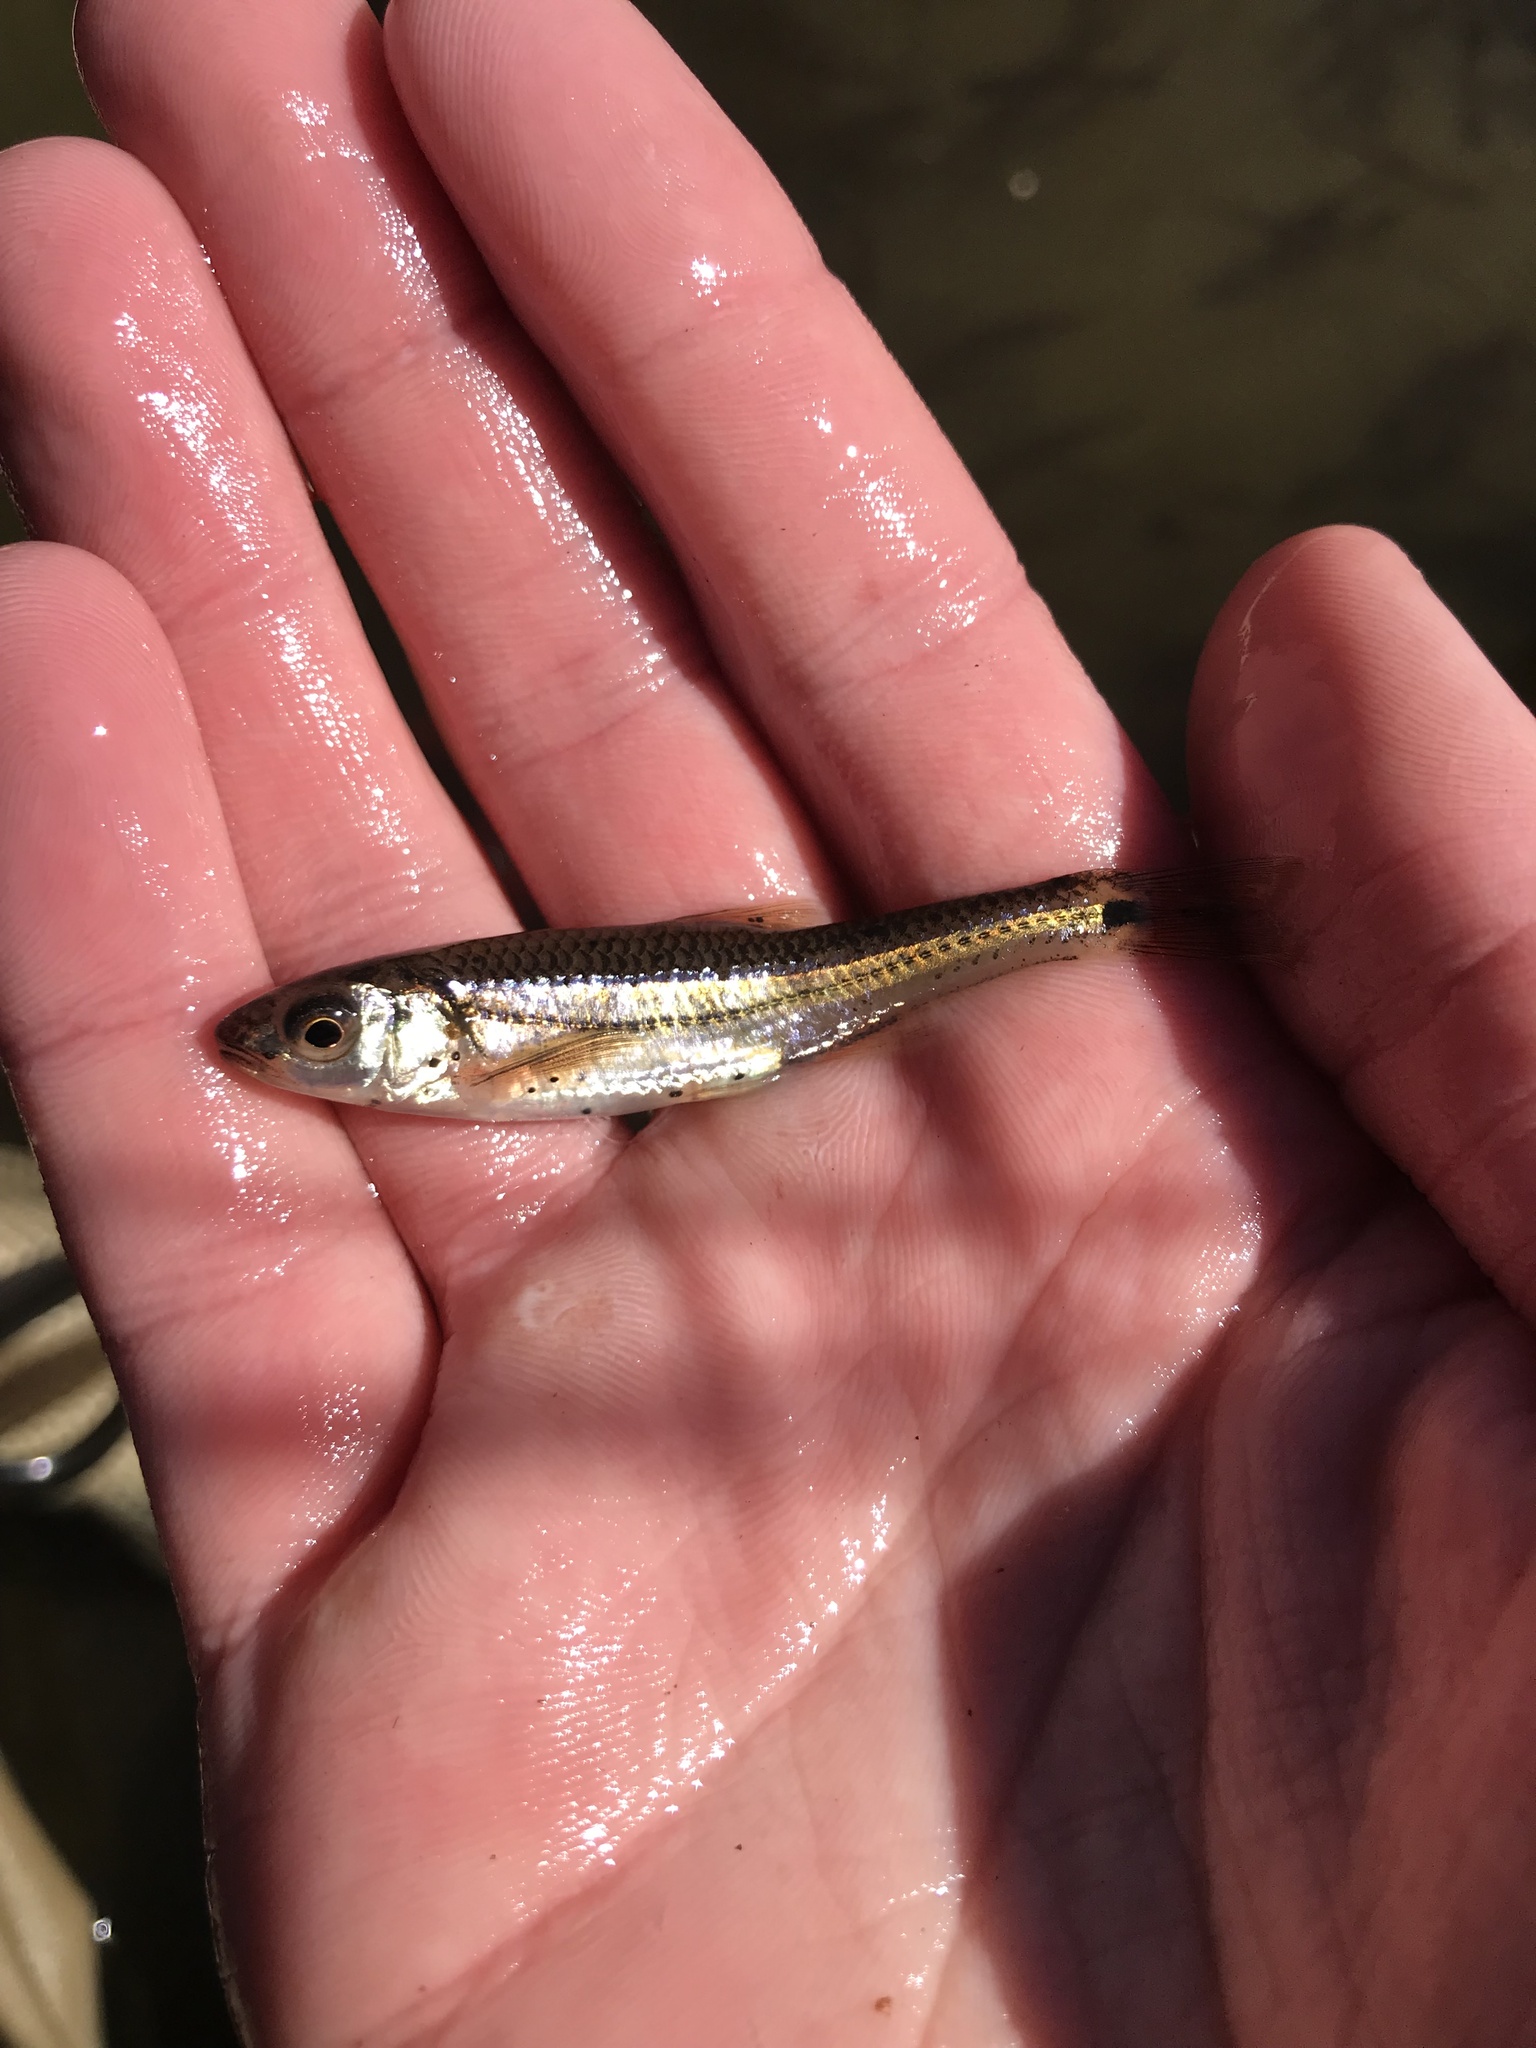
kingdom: Animalia
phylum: Chordata
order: Cypriniformes
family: Cyprinidae
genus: Notropis
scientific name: Notropis
